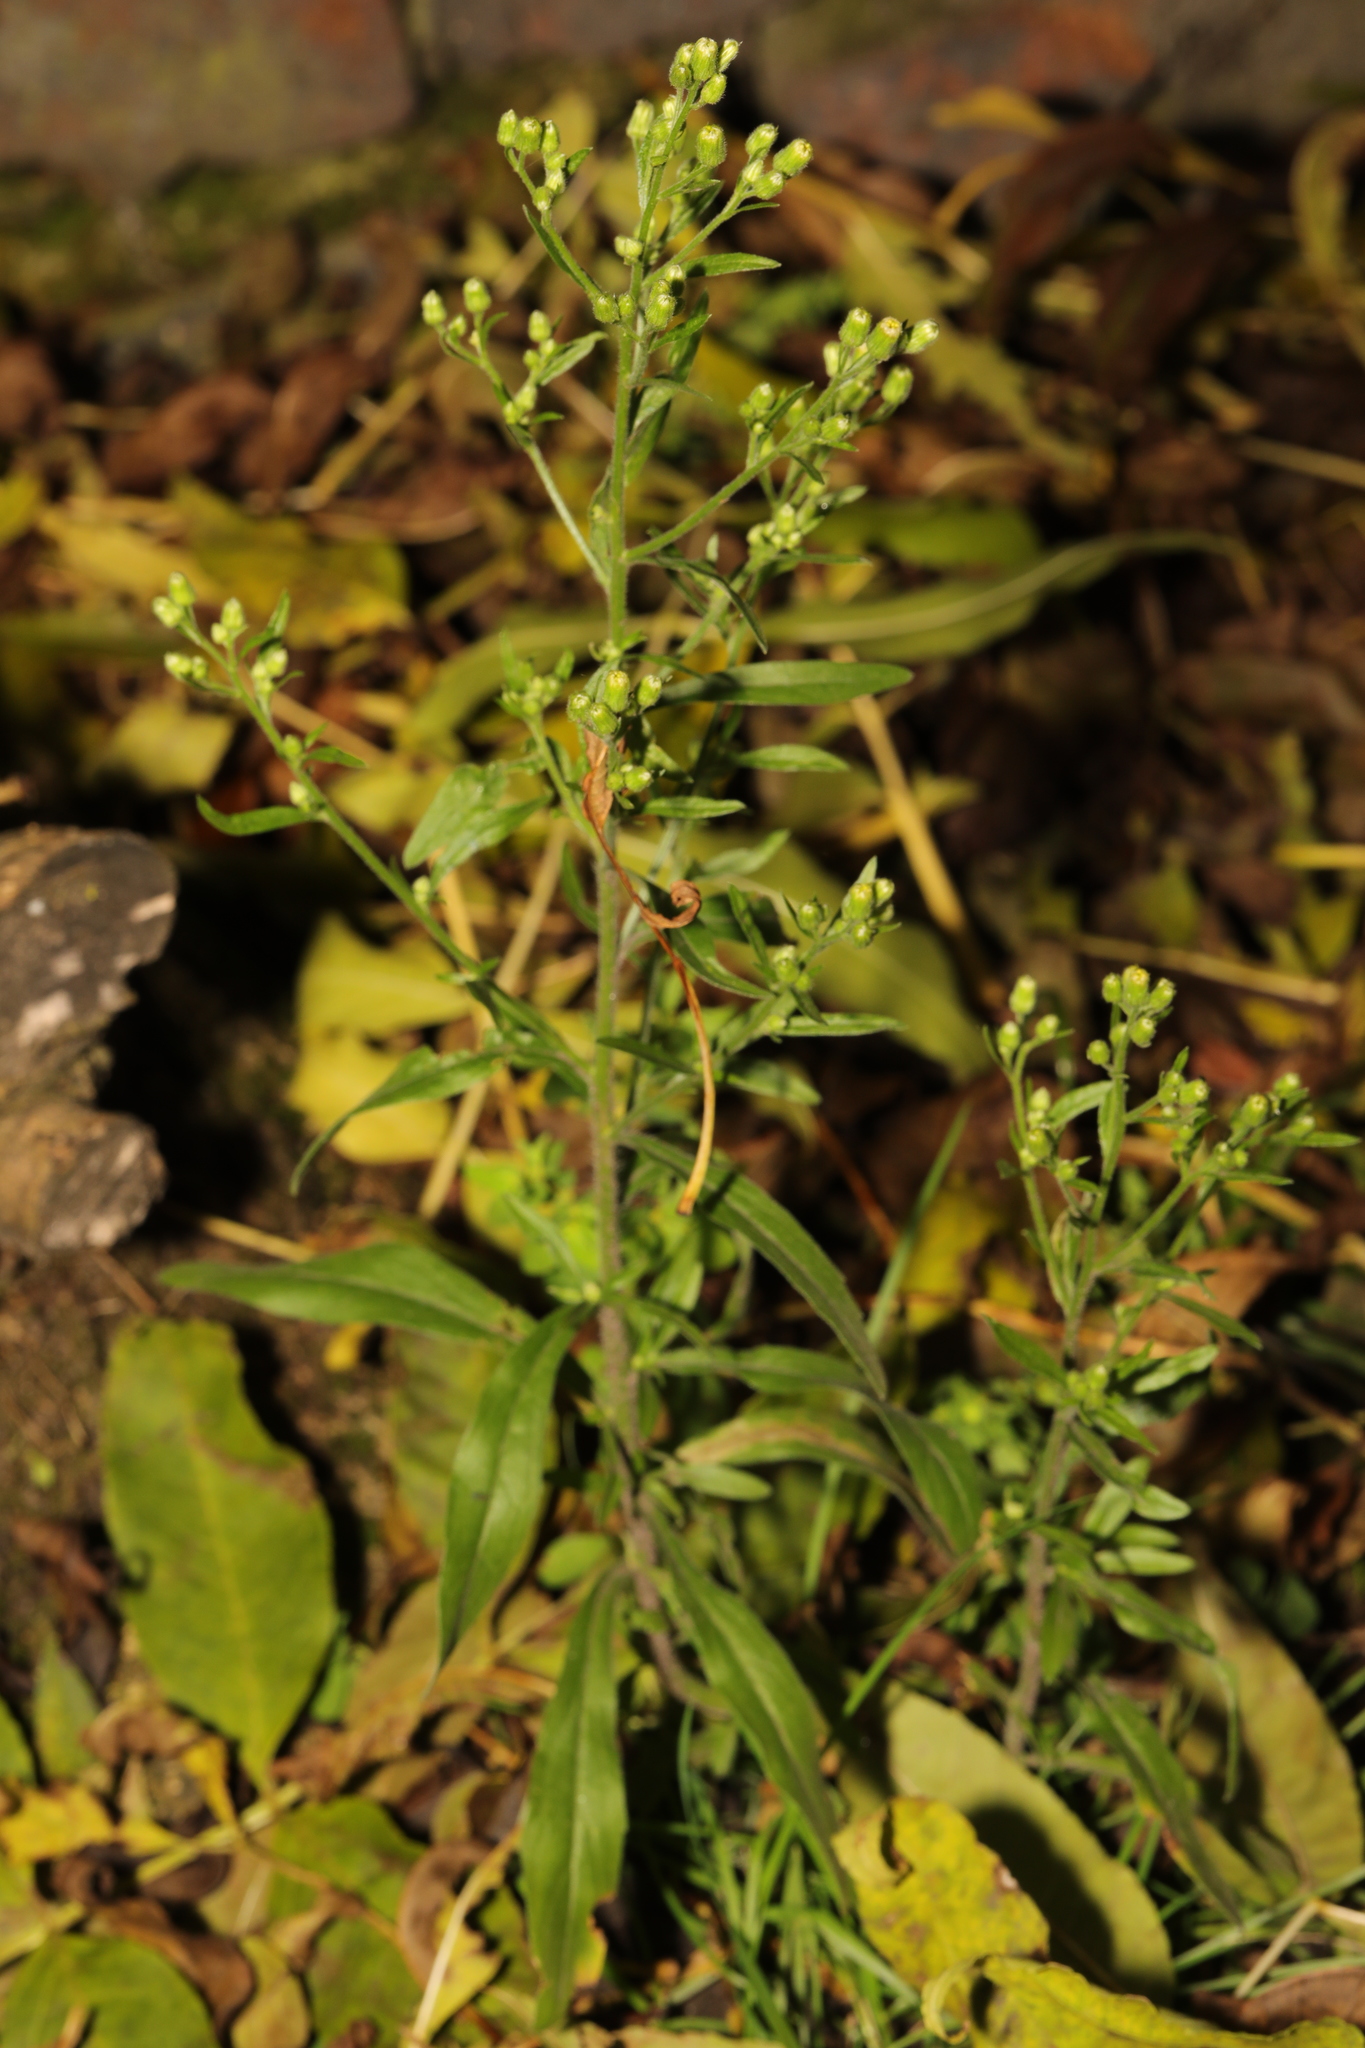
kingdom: Plantae
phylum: Tracheophyta
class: Magnoliopsida
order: Asterales
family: Asteraceae
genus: Erigeron
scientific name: Erigeron canadensis
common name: Canadian fleabane
